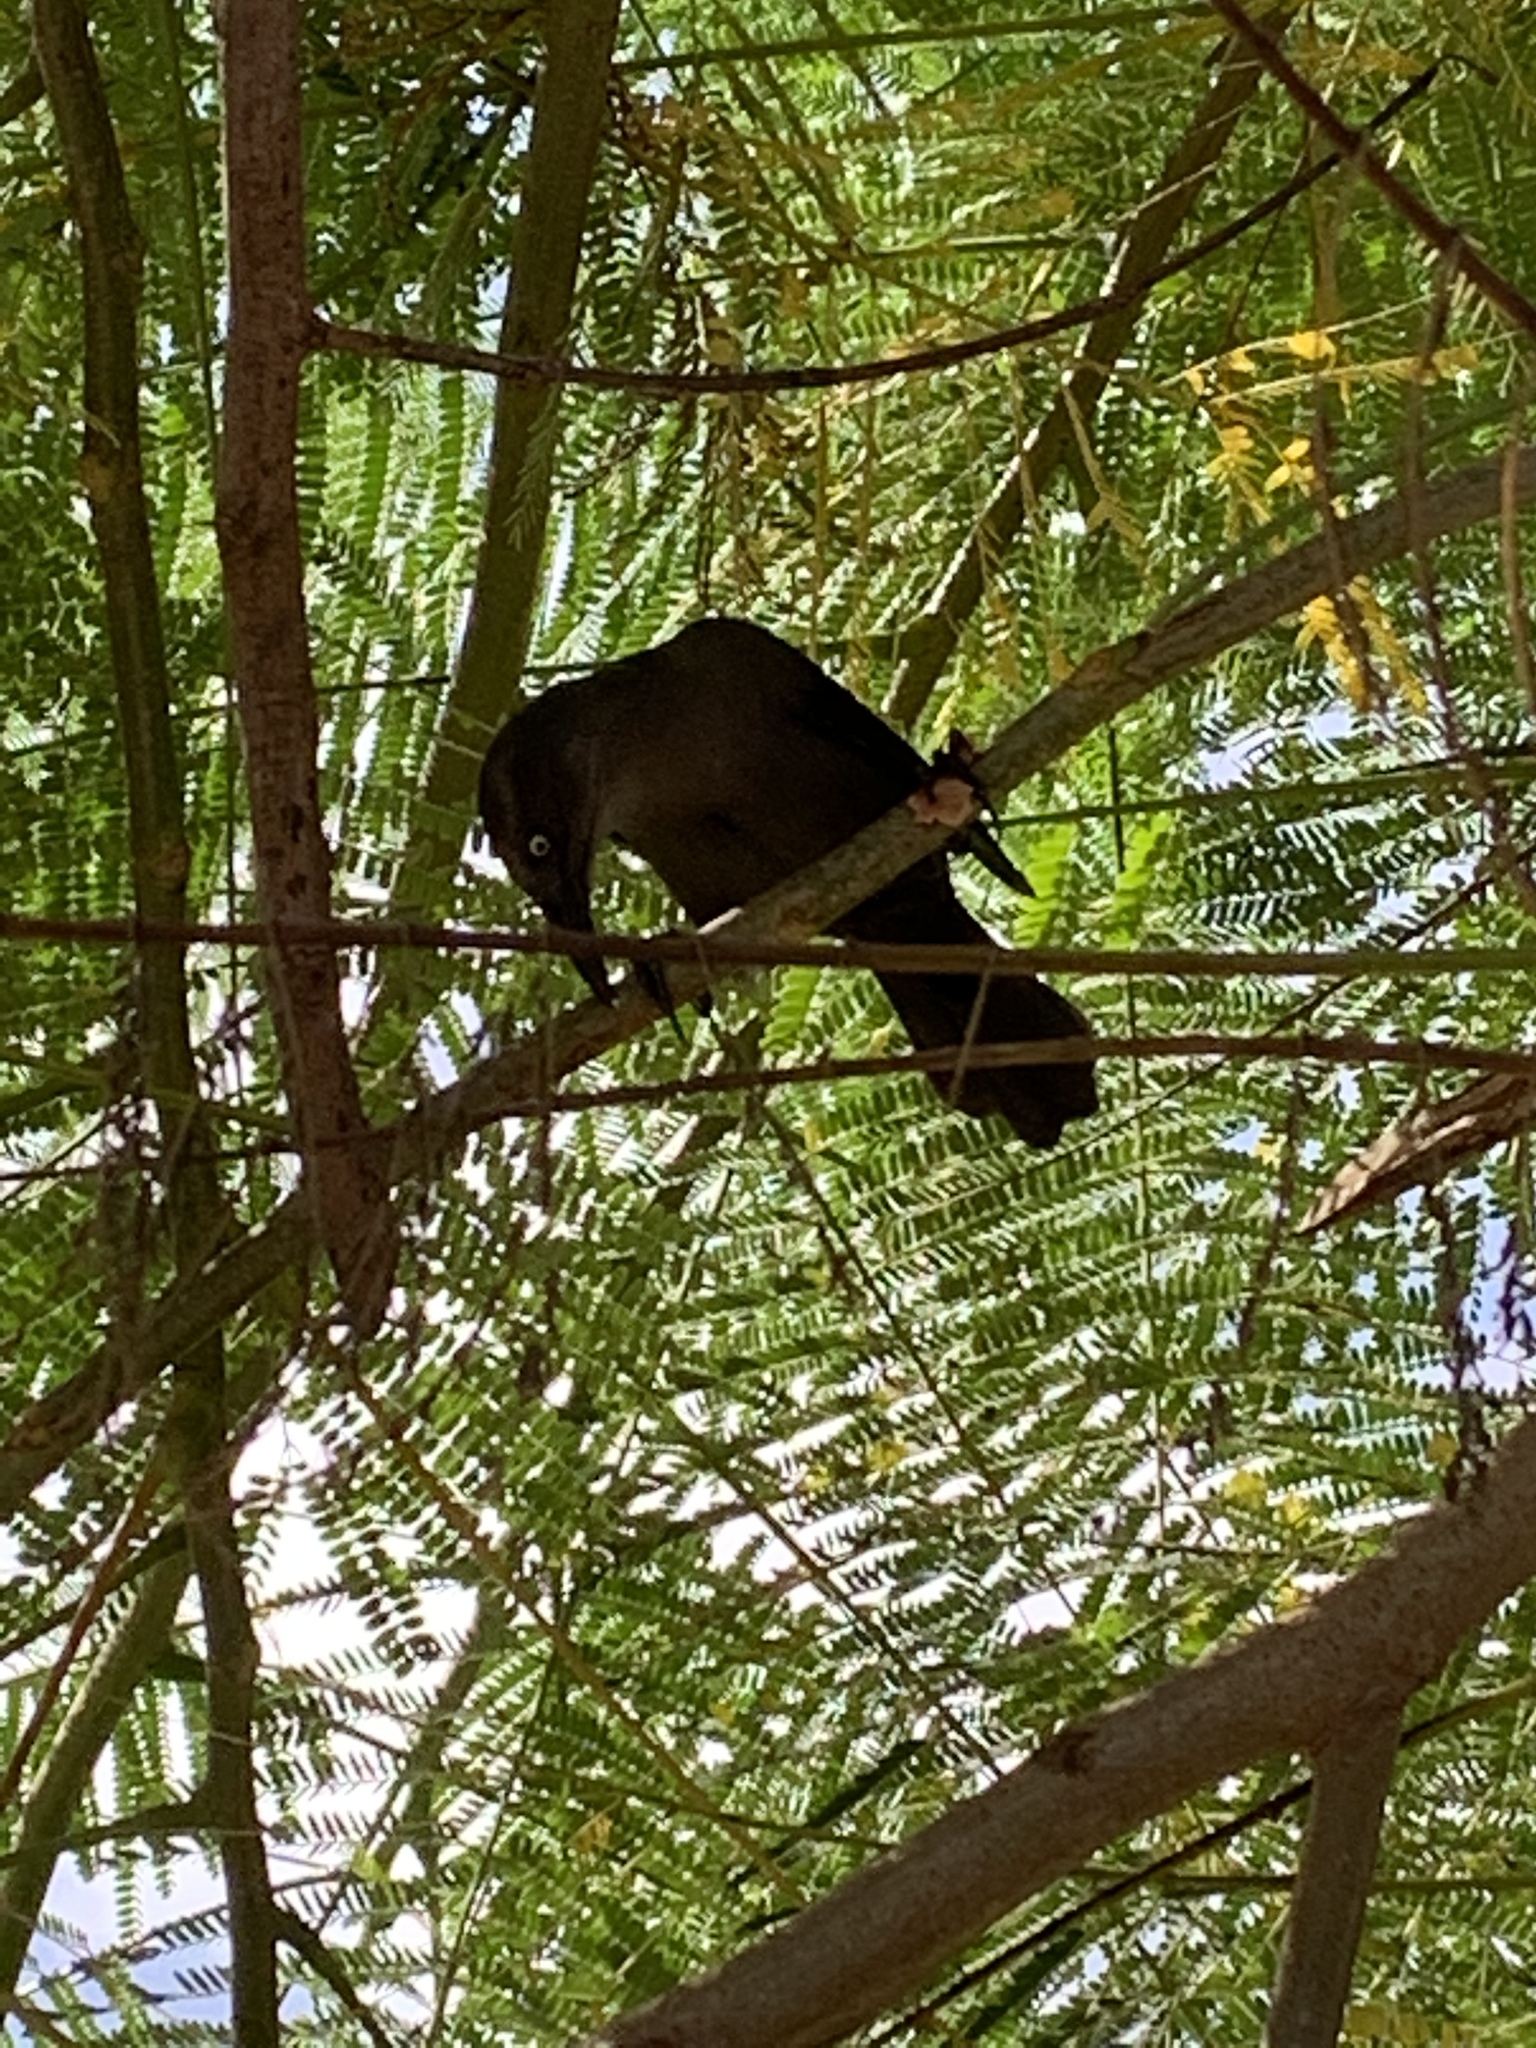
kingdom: Animalia
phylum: Chordata
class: Aves
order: Passeriformes
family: Icteridae
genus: Quiscalus
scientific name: Quiscalus lugubris
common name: Carib grackle
